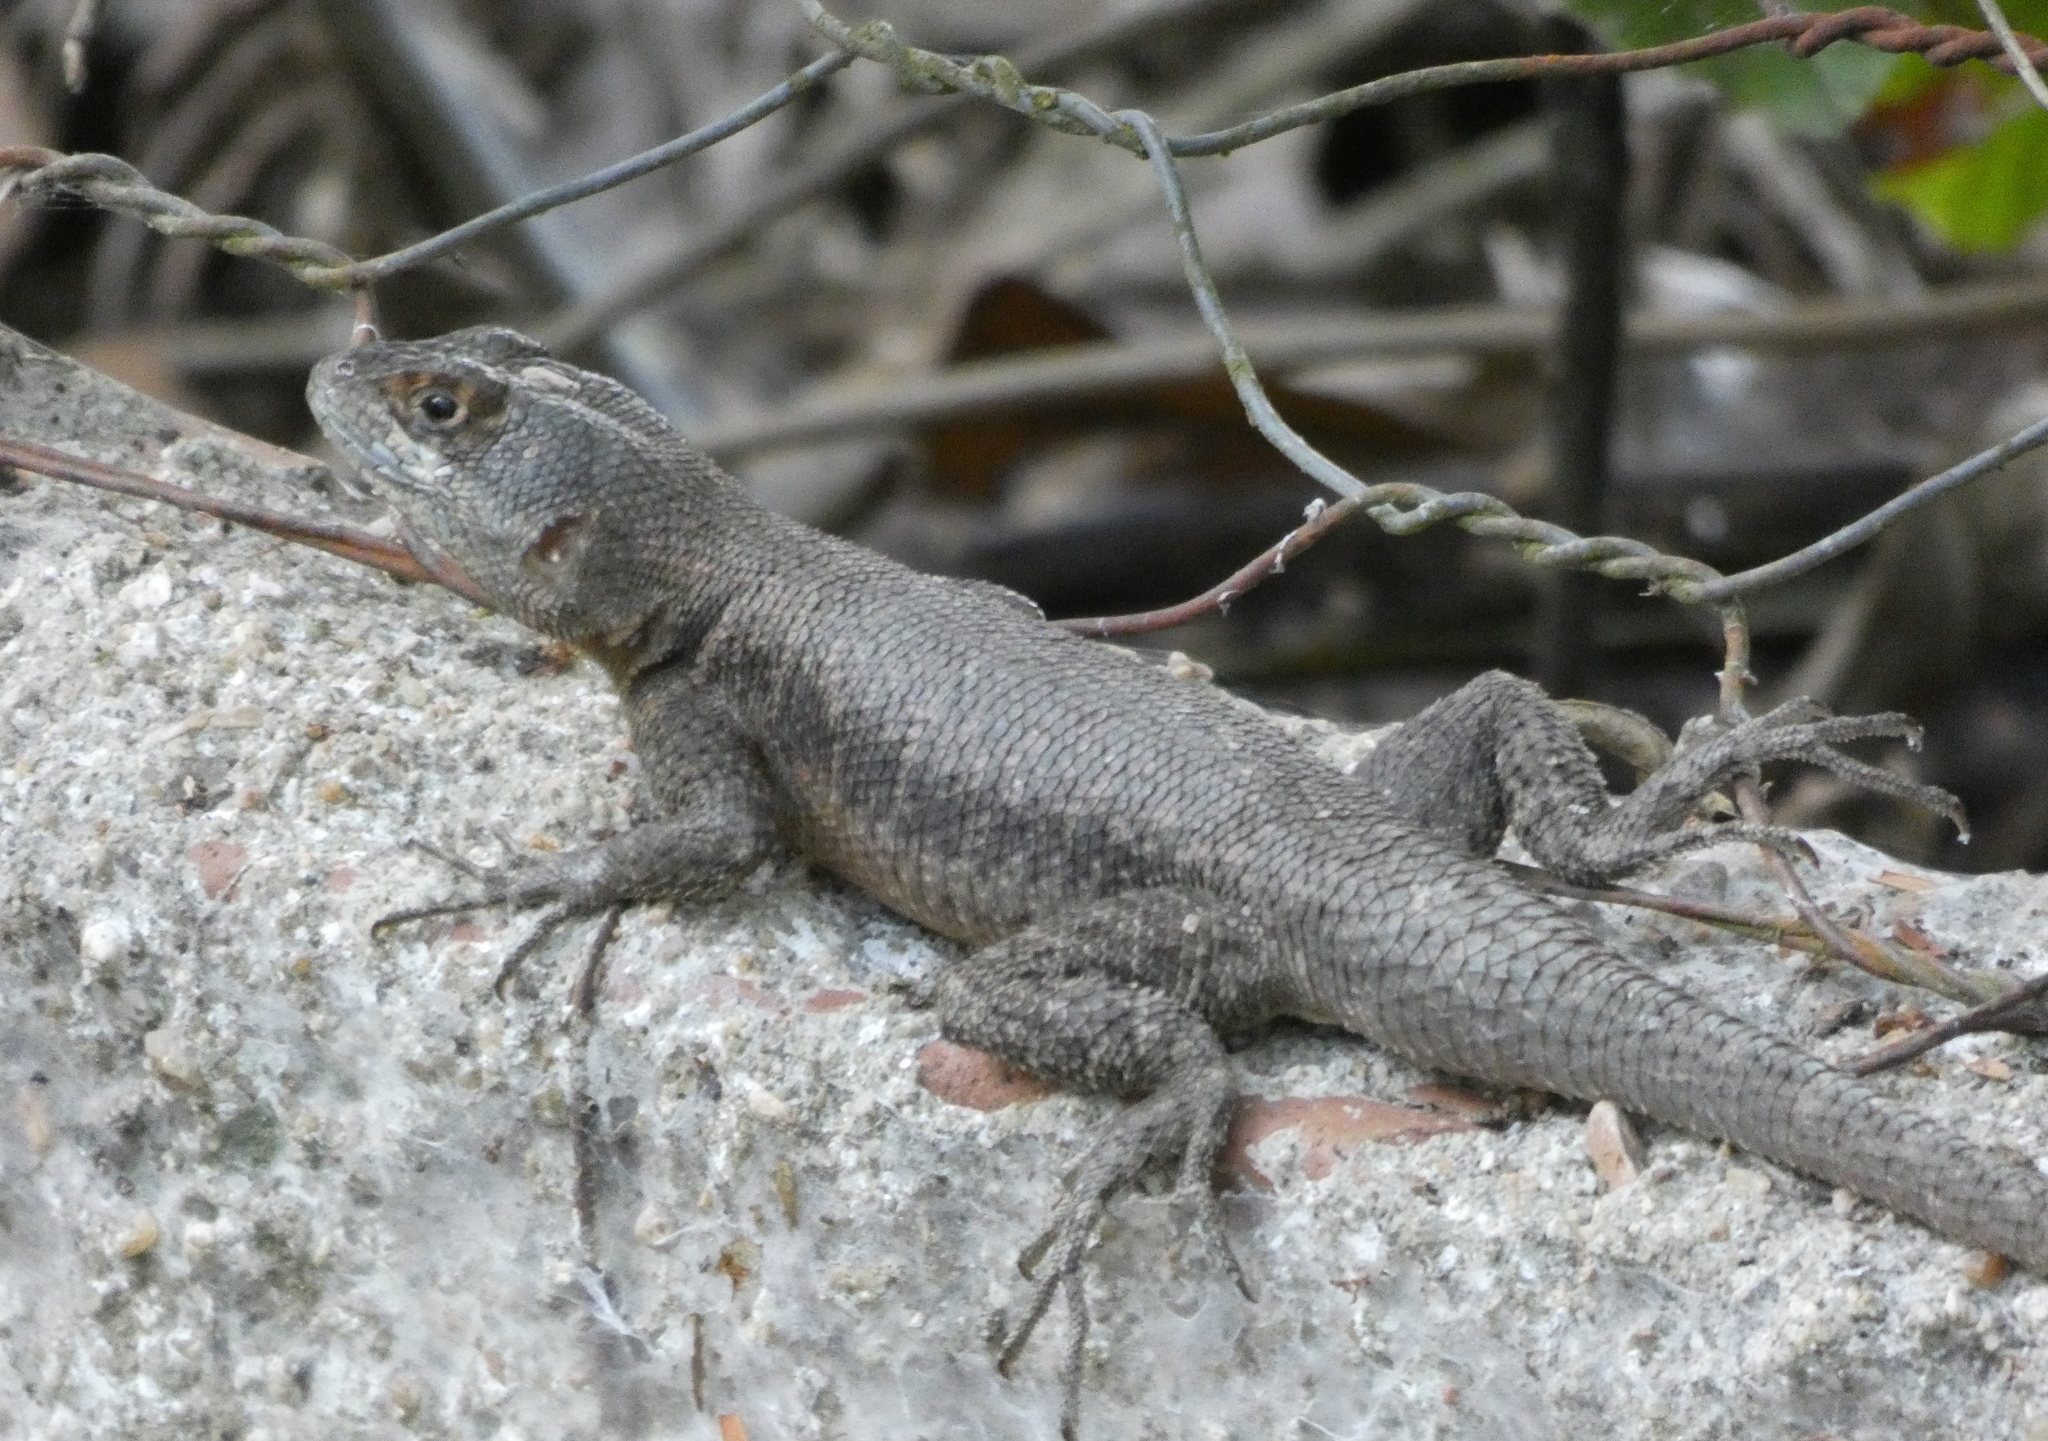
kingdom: Animalia
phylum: Chordata
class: Squamata
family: Tropiduridae
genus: Tropidurus
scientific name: Tropidurus hispidus
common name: Peters' lava lizard
